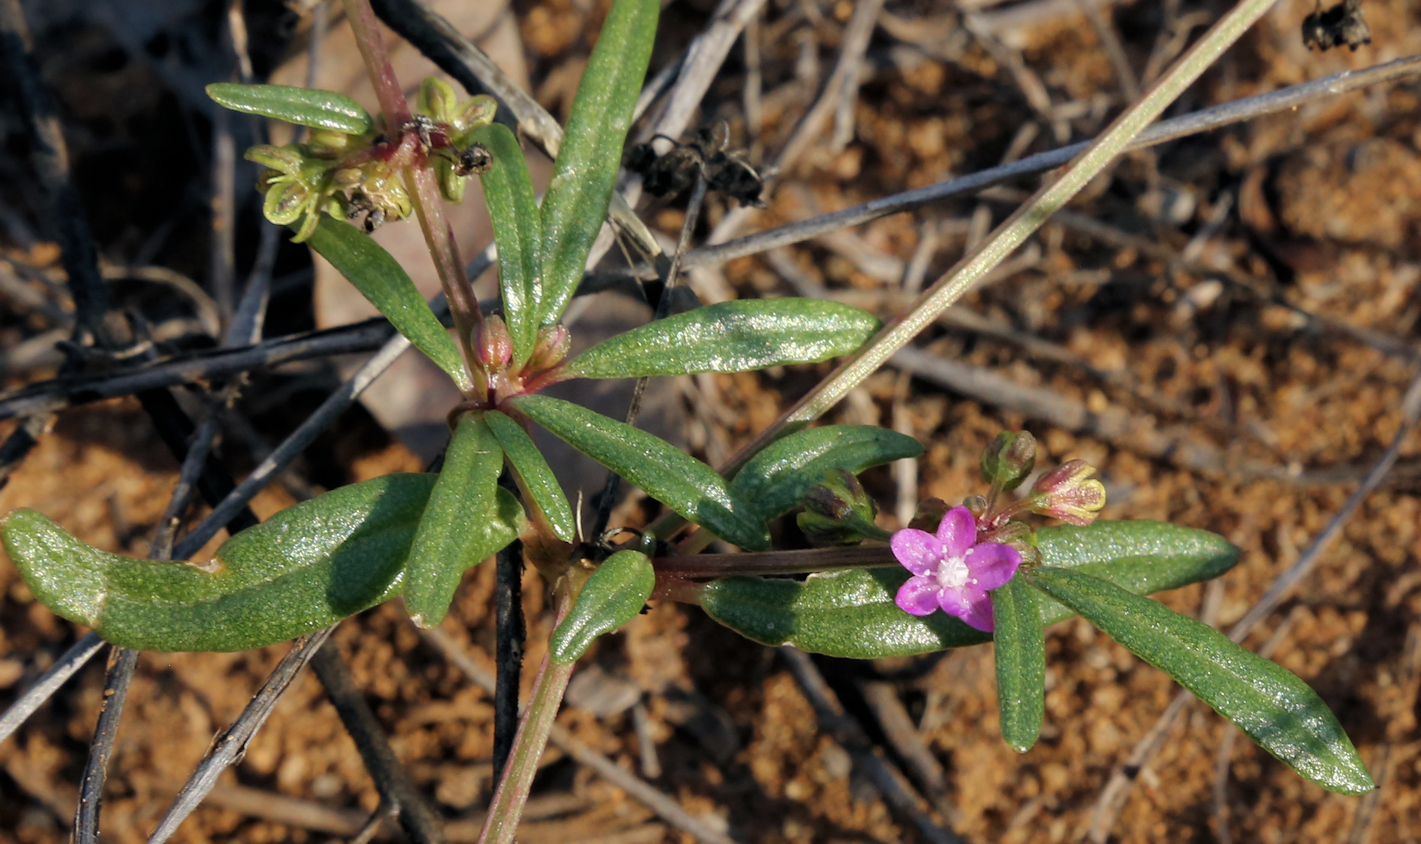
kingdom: Plantae
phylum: Tracheophyta
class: Magnoliopsida
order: Caryophyllales
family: Gisekiaceae
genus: Gisekia
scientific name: Gisekia pharnaceoides
